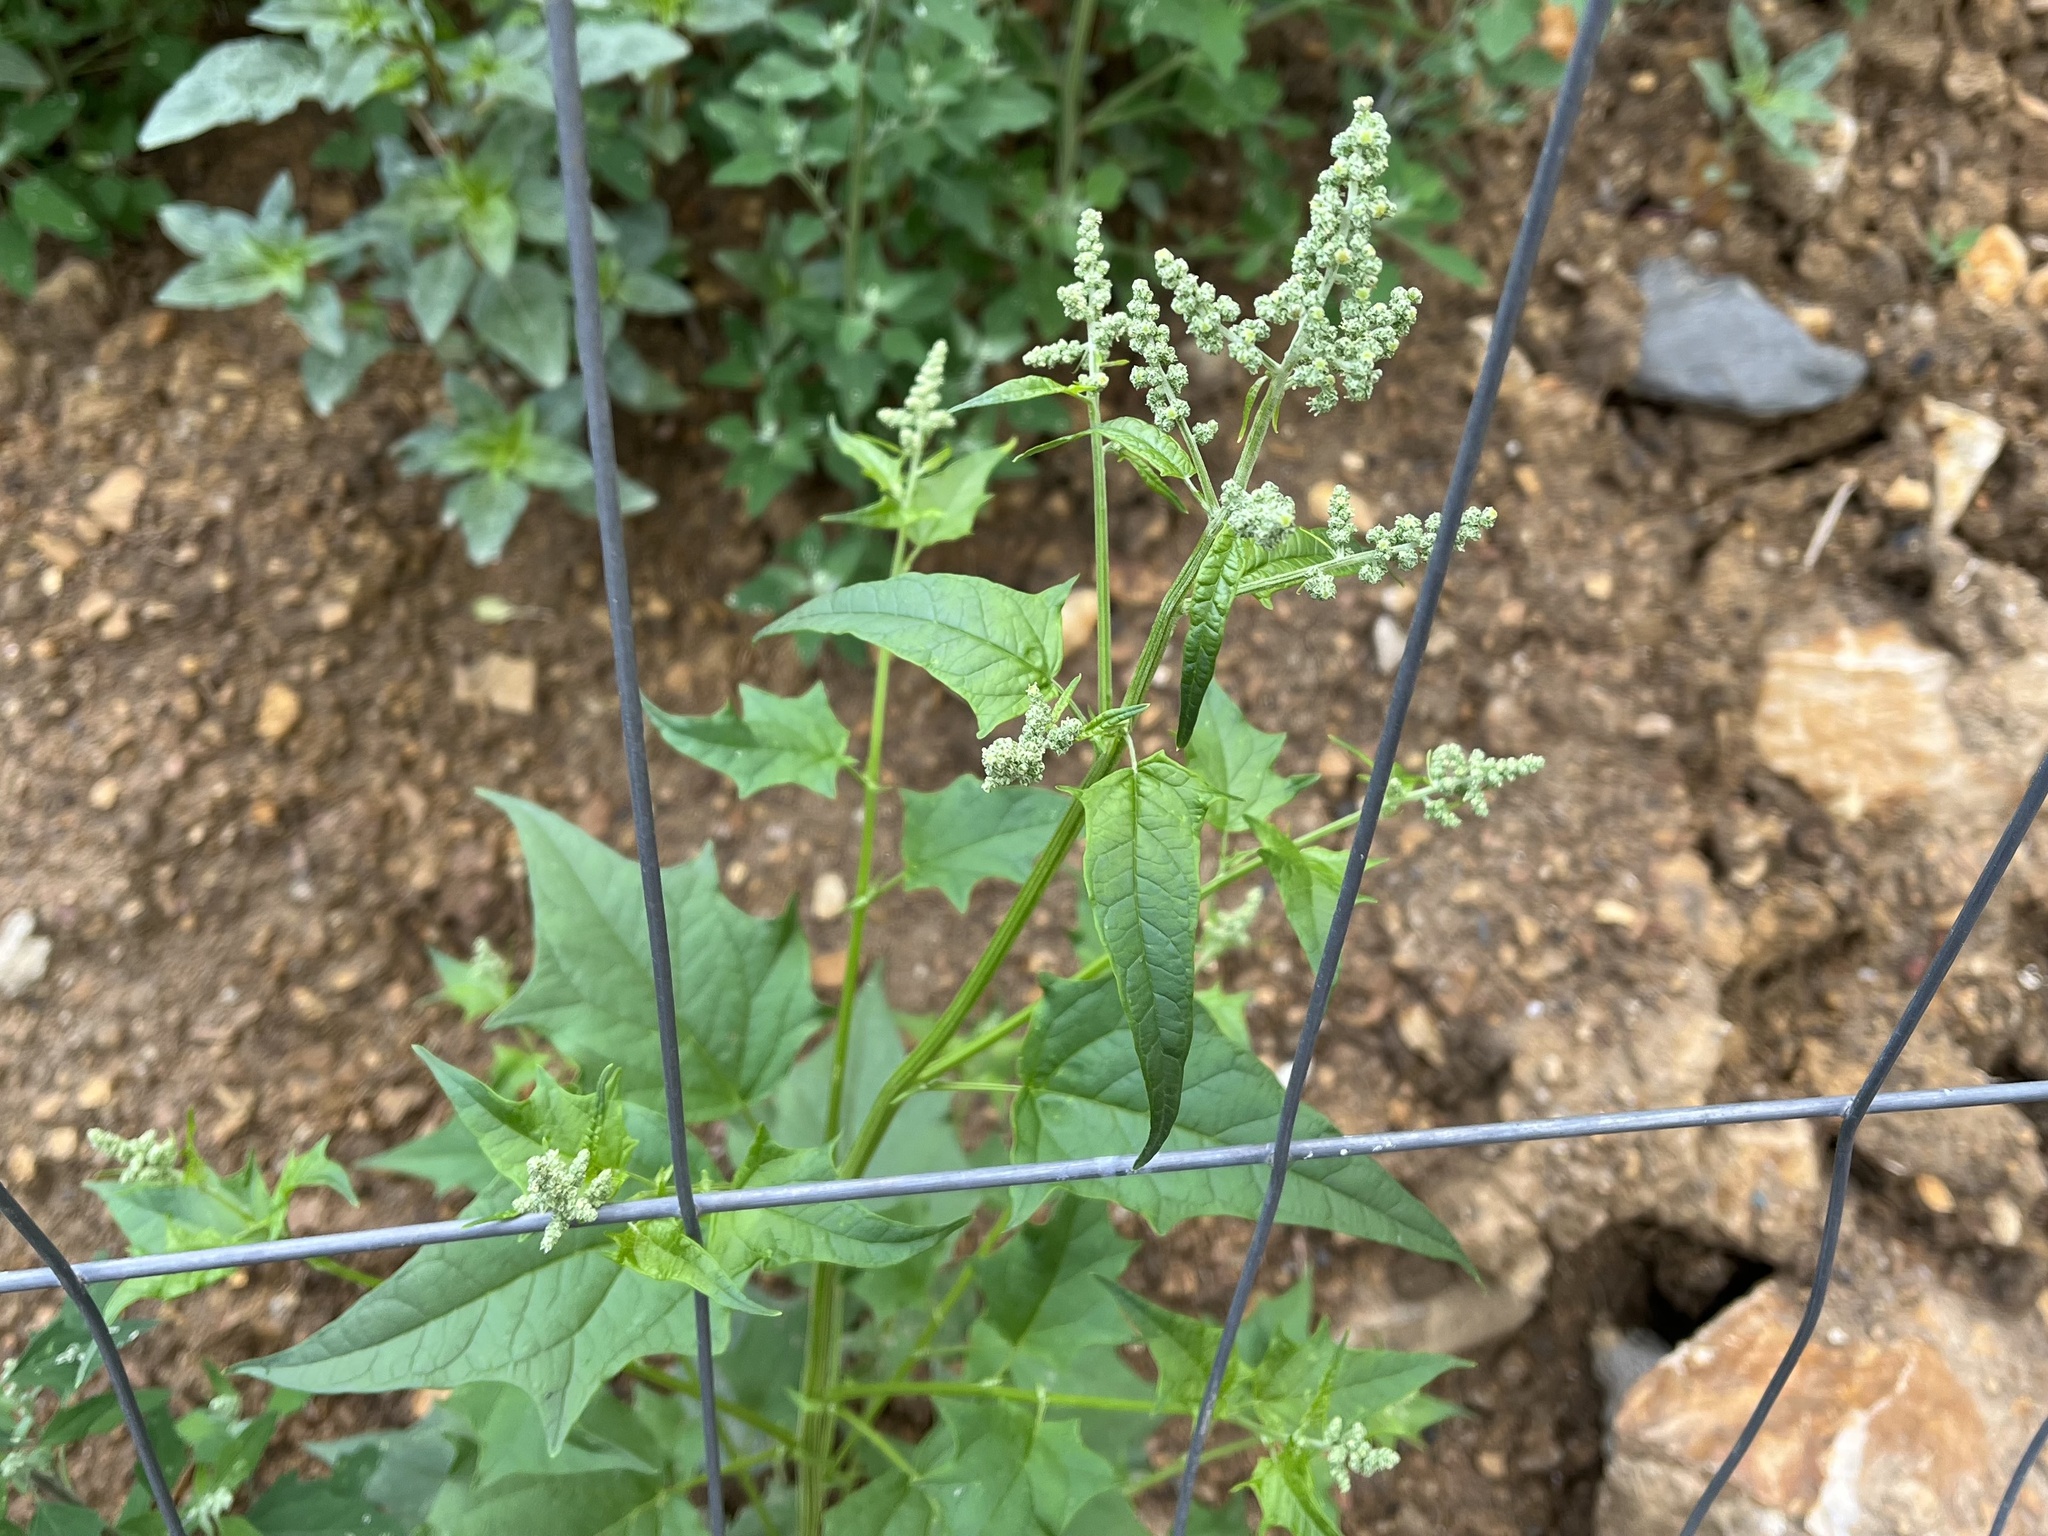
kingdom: Plantae
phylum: Tracheophyta
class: Magnoliopsida
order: Caryophyllales
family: Amaranthaceae
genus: Chenopodiastrum
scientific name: Chenopodiastrum hybridum
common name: Mapleleaf goosefoot
